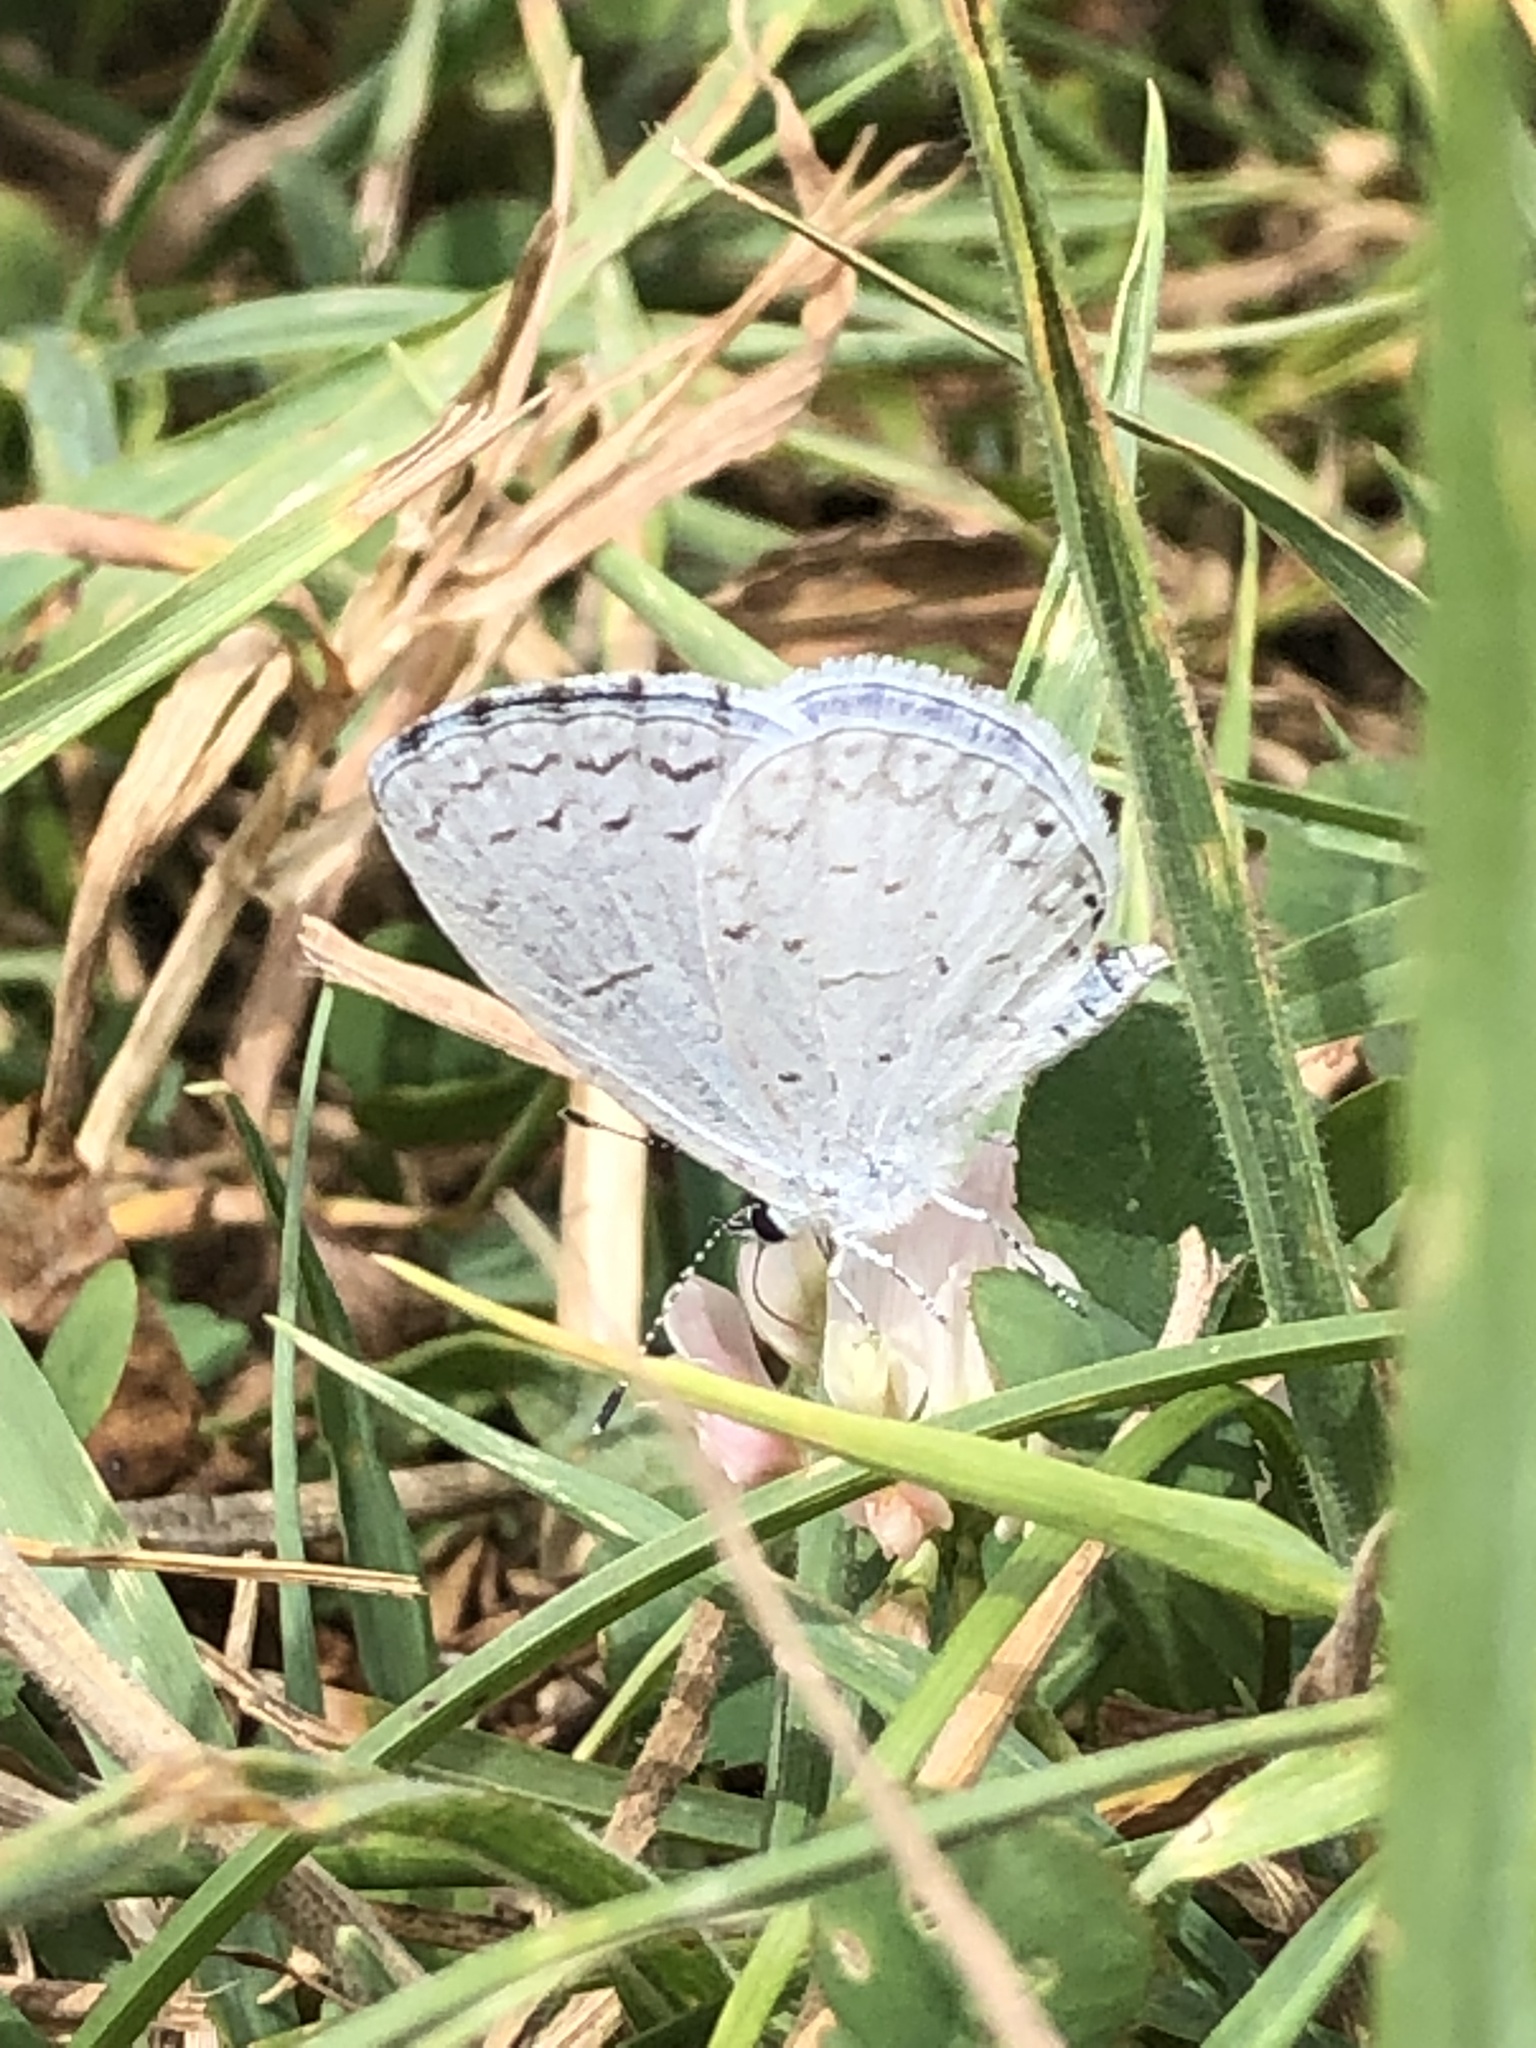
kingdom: Animalia
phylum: Arthropoda
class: Insecta
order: Lepidoptera
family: Lycaenidae
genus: Cyaniris
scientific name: Cyaniris neglecta
